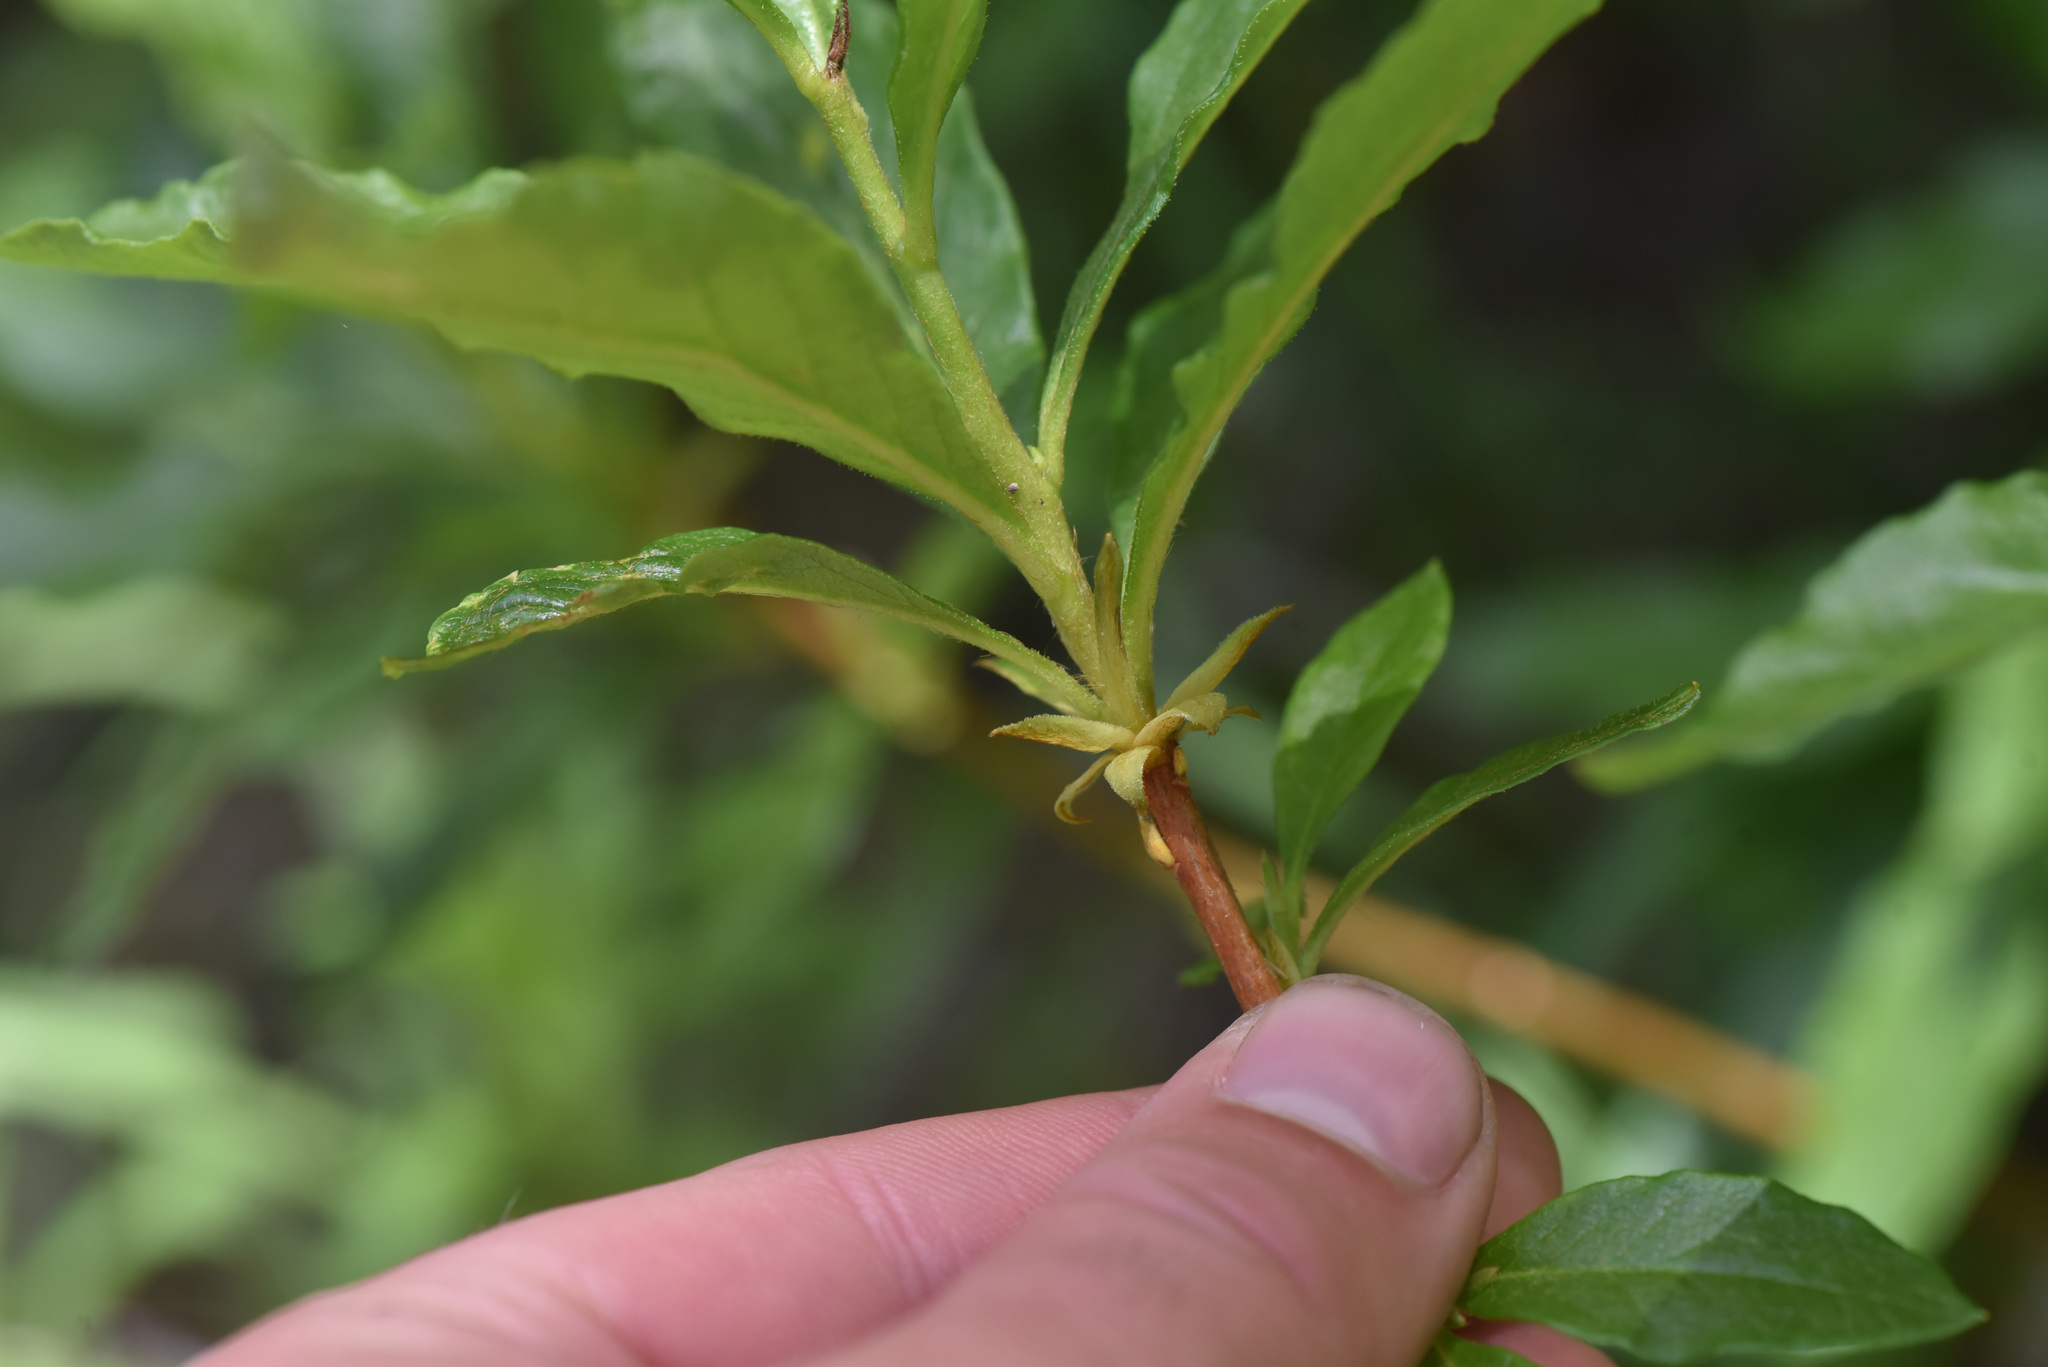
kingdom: Plantae
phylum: Tracheophyta
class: Magnoliopsida
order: Ericales
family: Ericaceae
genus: Rhododendron
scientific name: Rhododendron albiflorum
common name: White rhododendron
